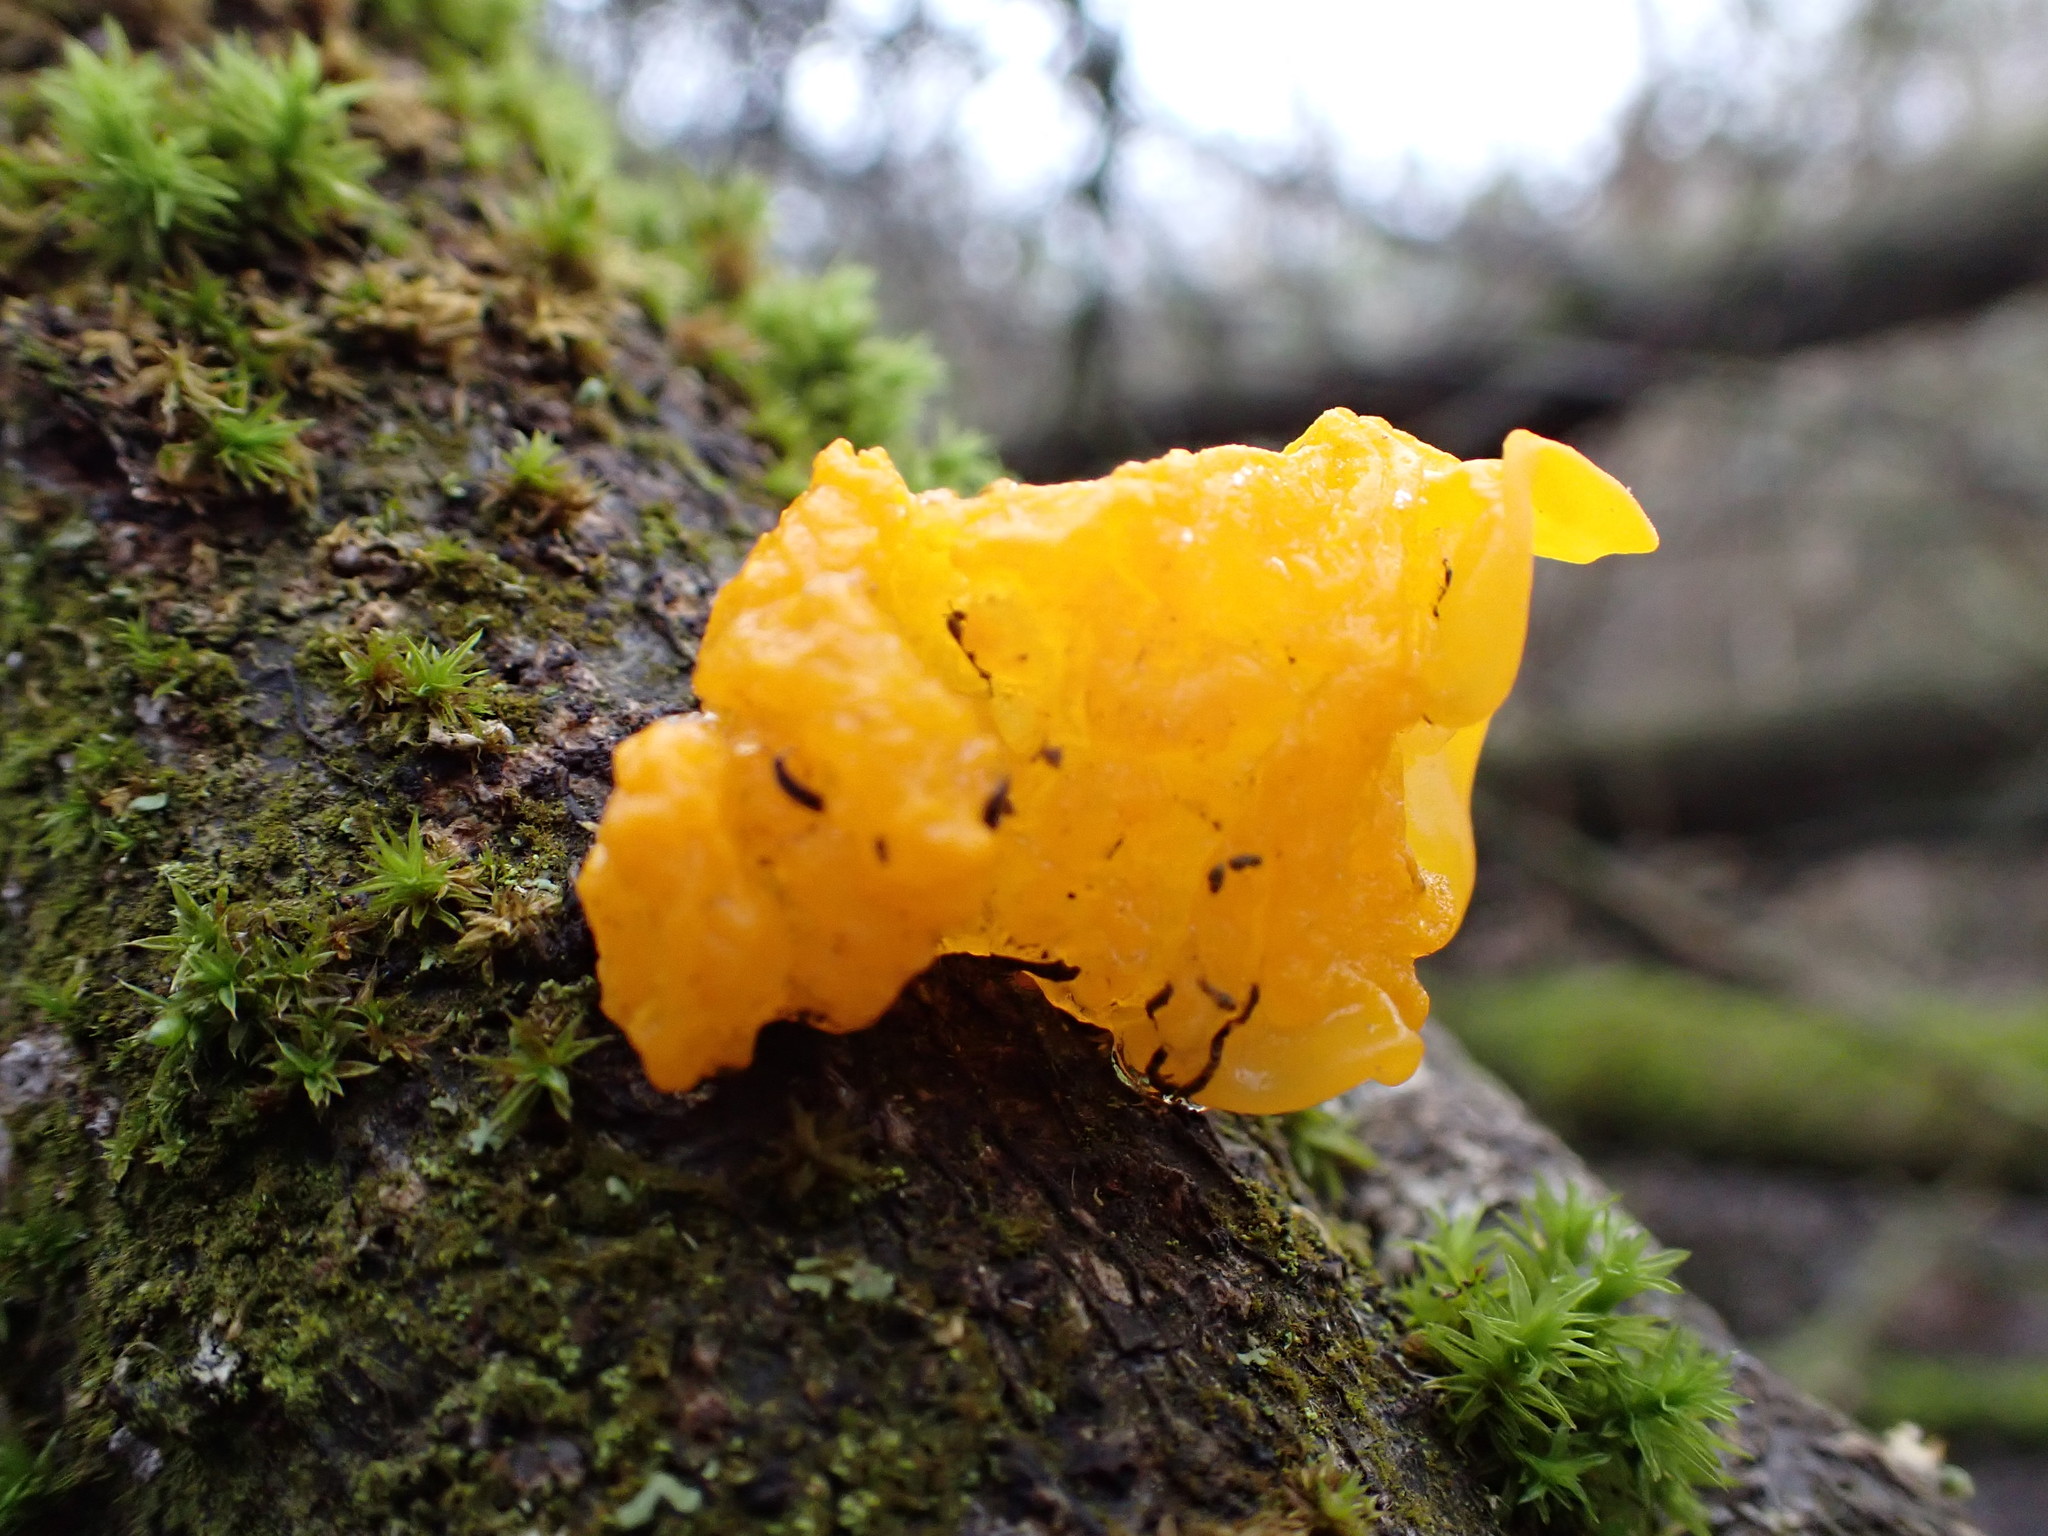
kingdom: Fungi
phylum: Basidiomycota
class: Tremellomycetes
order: Tremellales
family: Tremellaceae
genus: Tremella
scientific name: Tremella mesenterica
